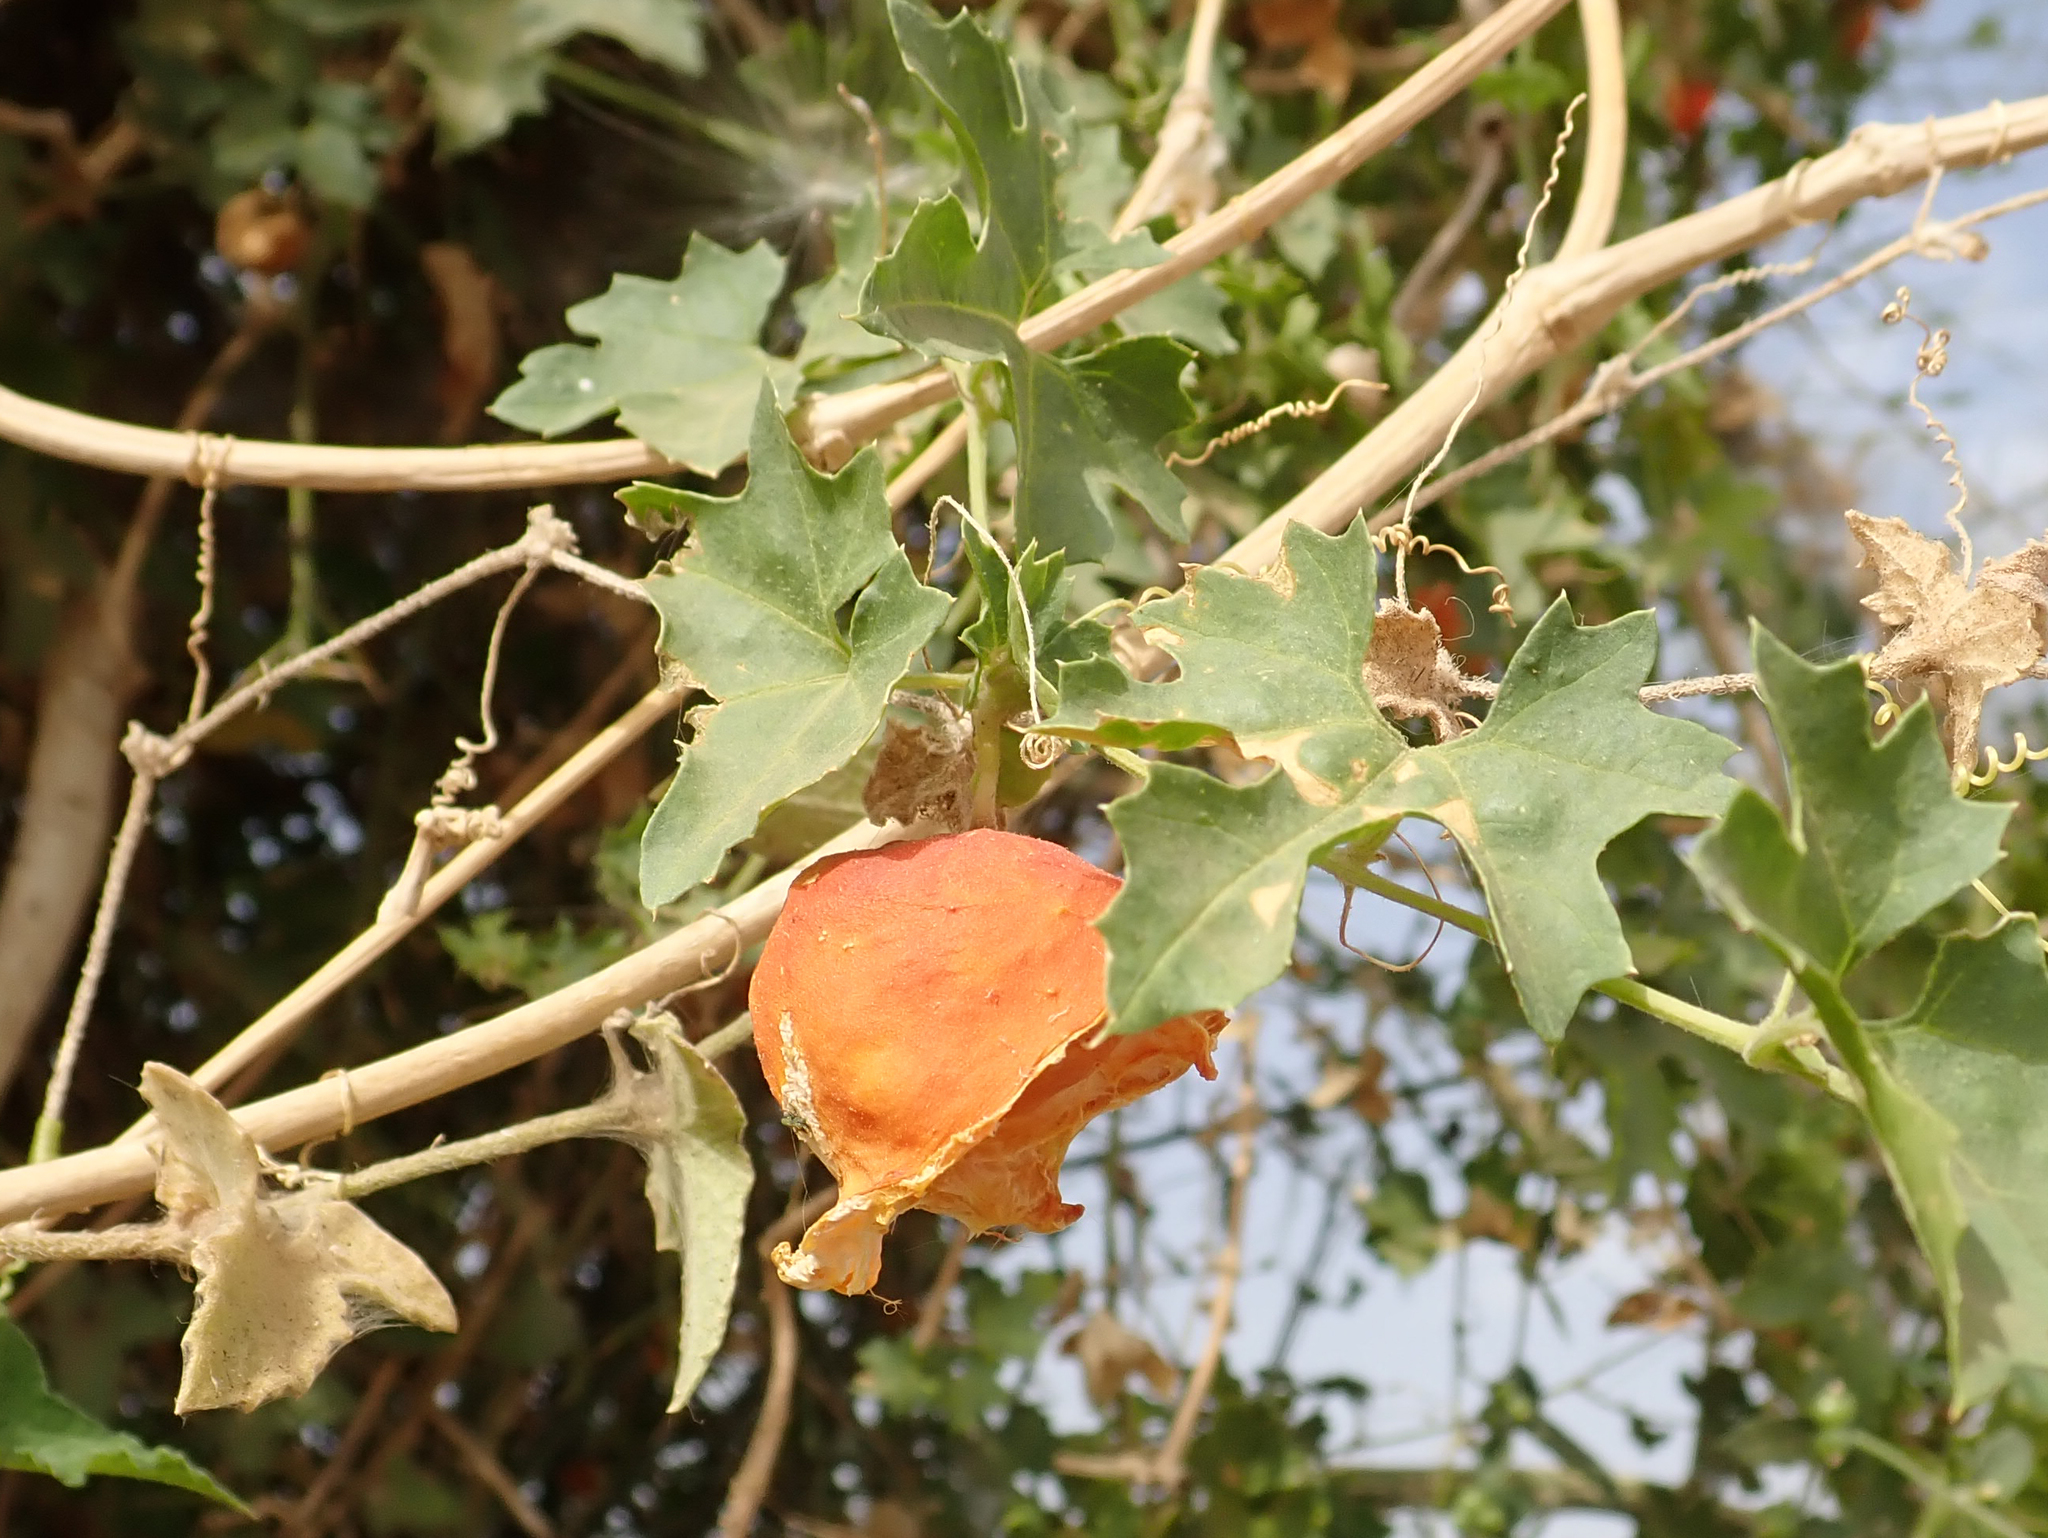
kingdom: Plantae
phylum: Tracheophyta
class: Magnoliopsida
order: Cucurbitales
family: Cucurbitaceae
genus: Momordica
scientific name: Momordica balsamina
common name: Southern balsampear
